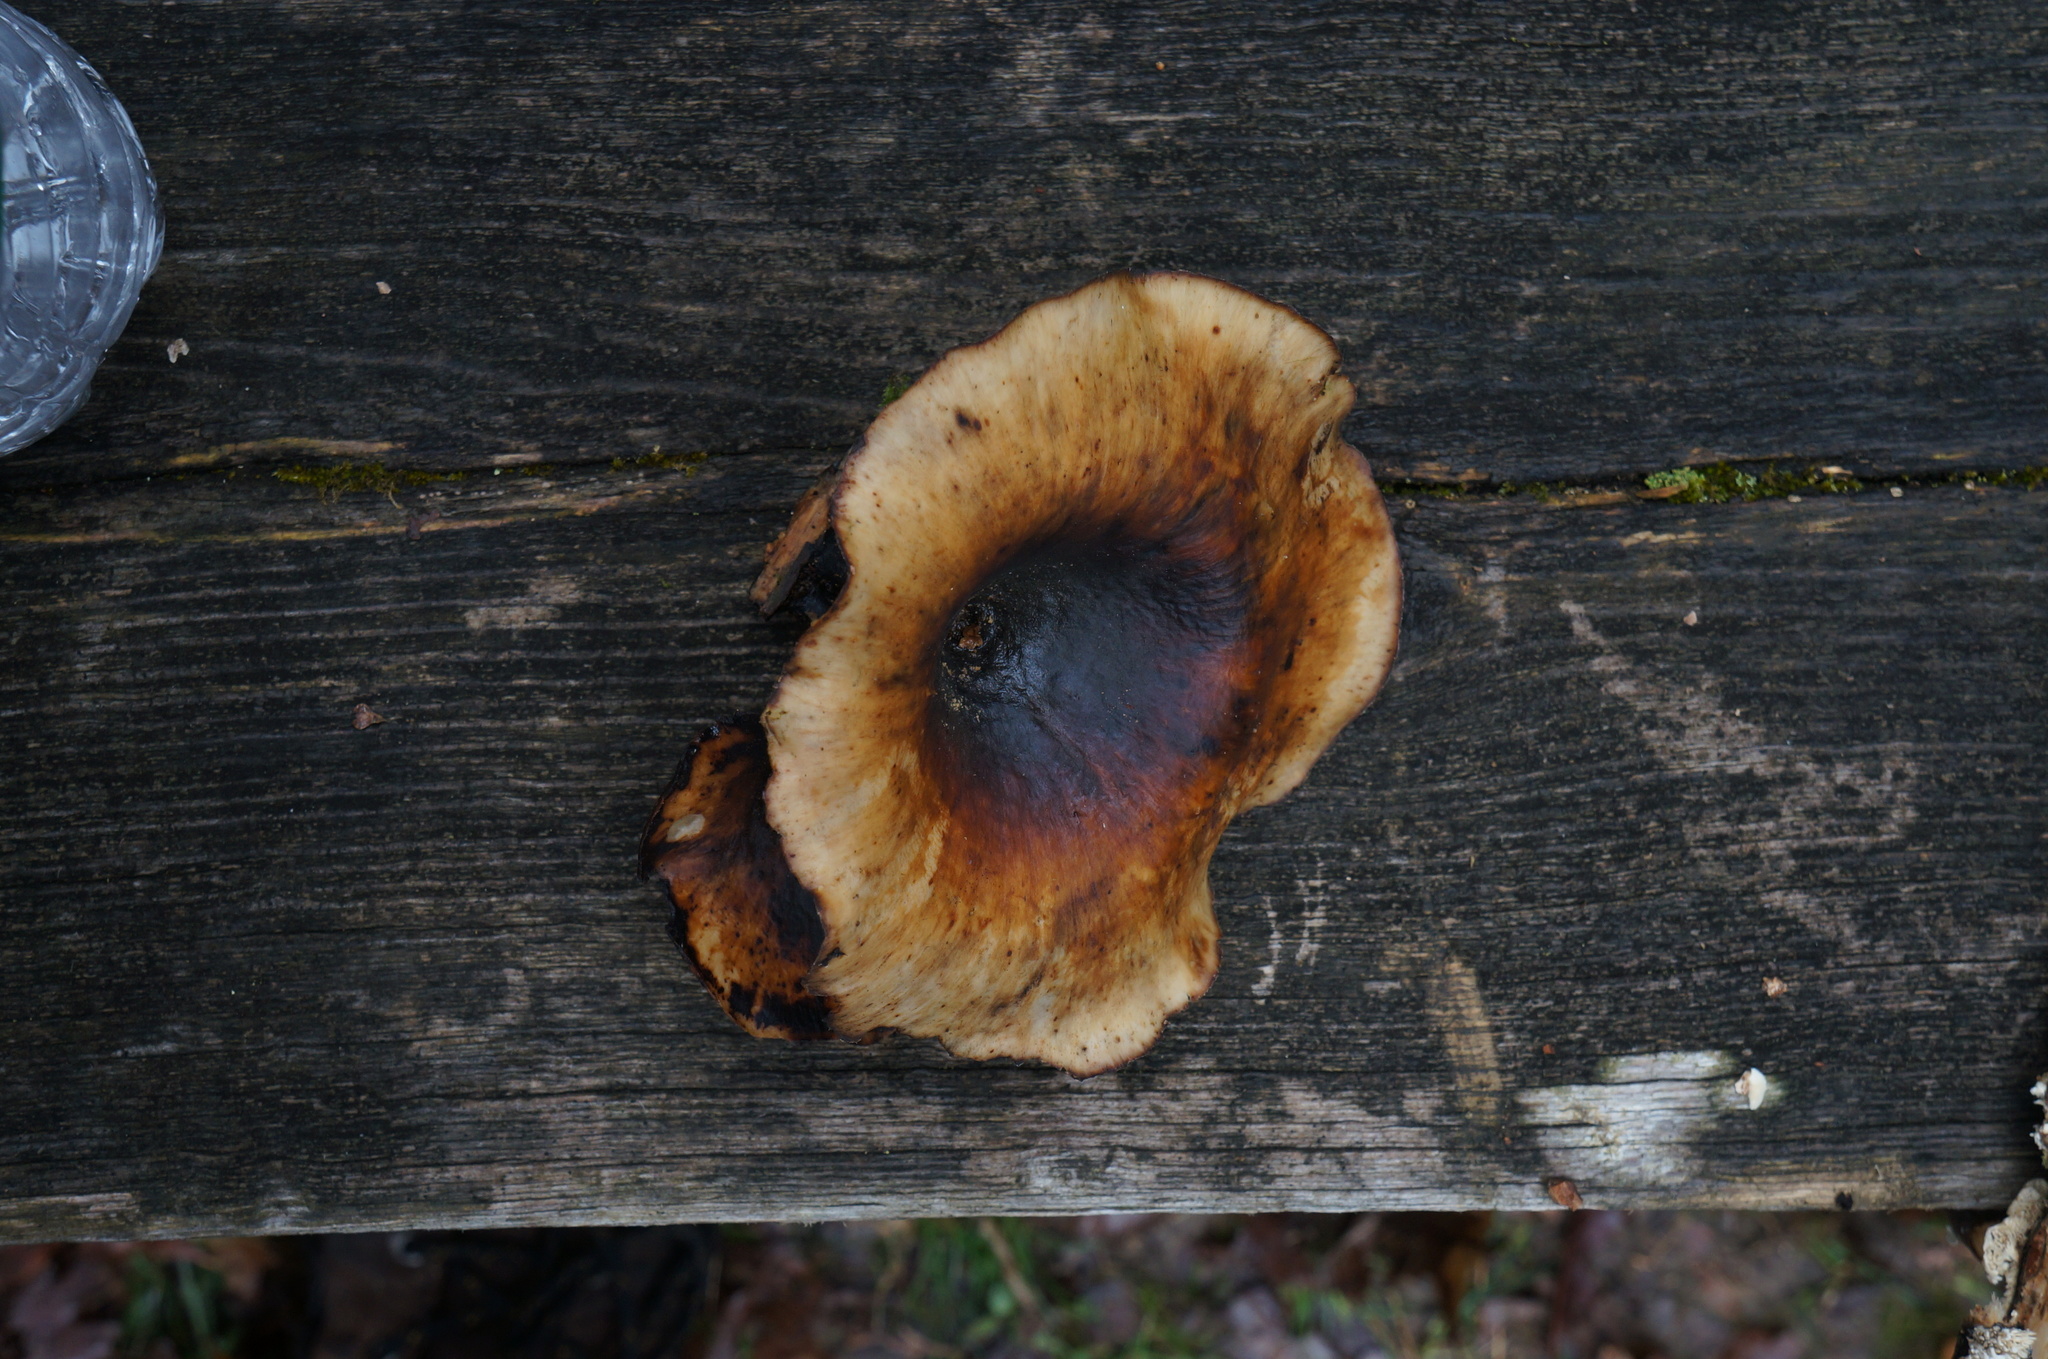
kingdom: Fungi
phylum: Basidiomycota
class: Agaricomycetes
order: Polyporales
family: Polyporaceae
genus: Picipes
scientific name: Picipes badius
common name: Bay polypore
